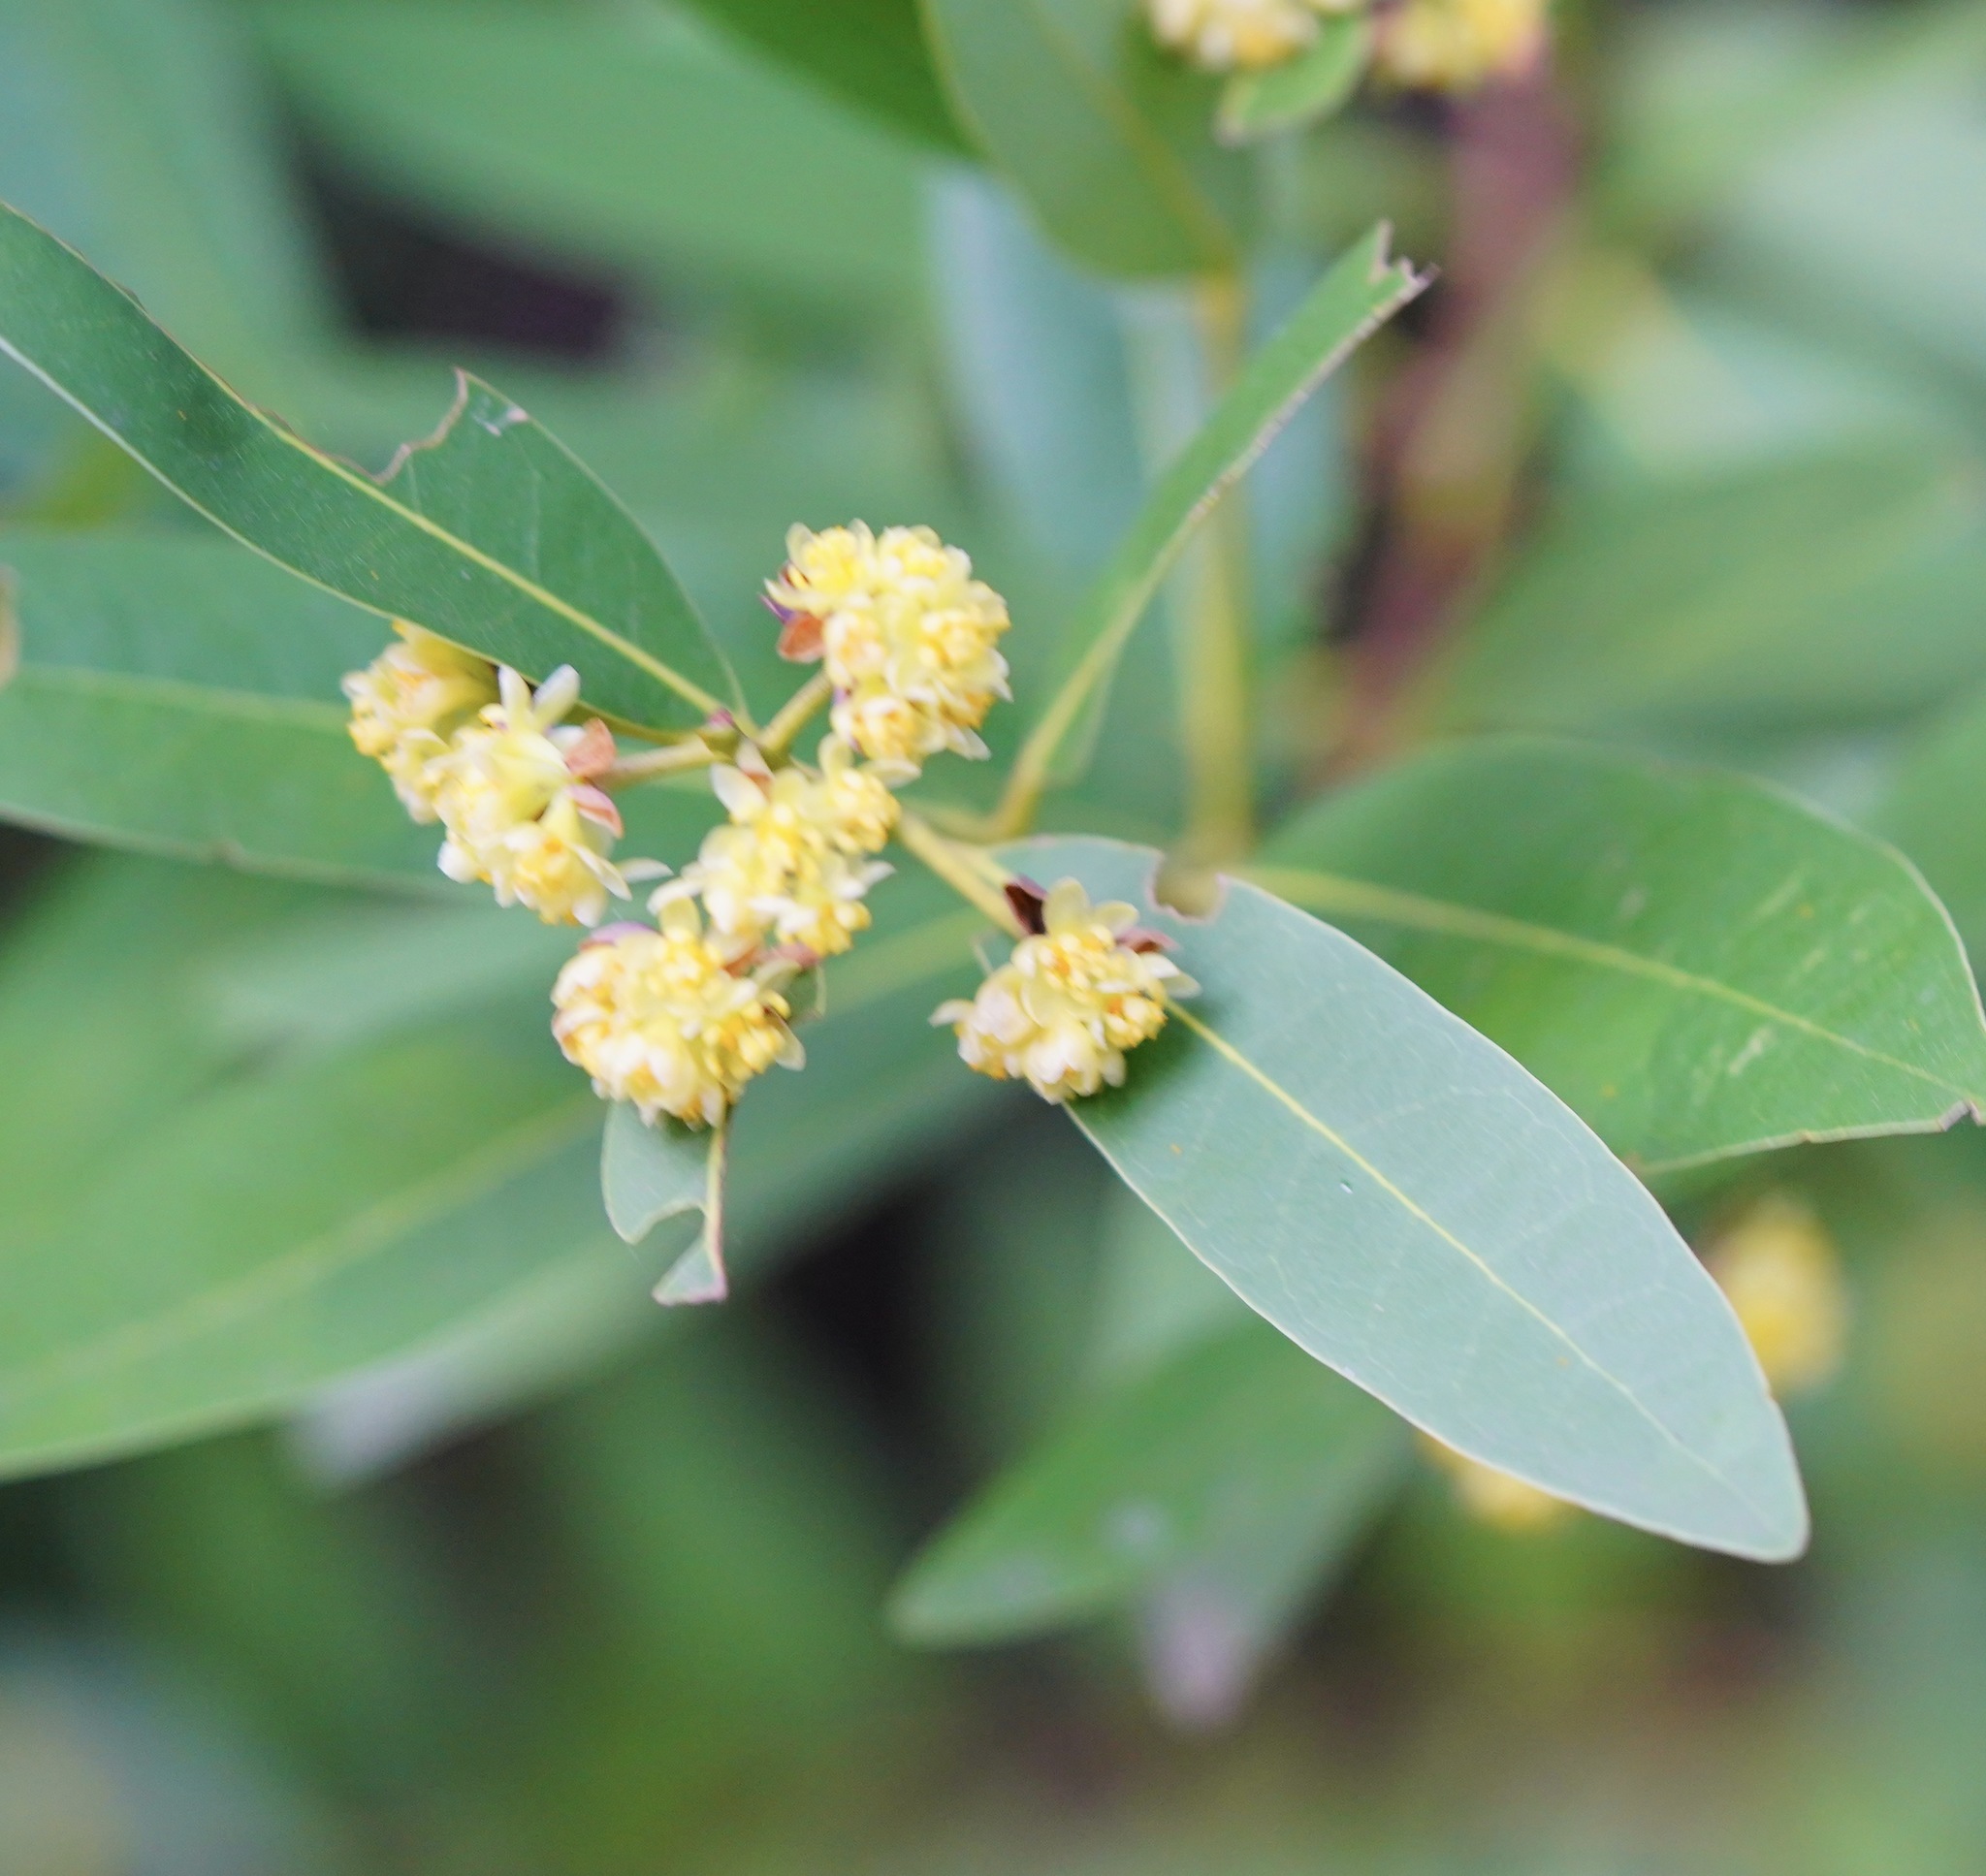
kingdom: Plantae
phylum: Tracheophyta
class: Magnoliopsida
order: Laurales
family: Lauraceae
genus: Umbellularia
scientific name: Umbellularia californica
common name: California bay
